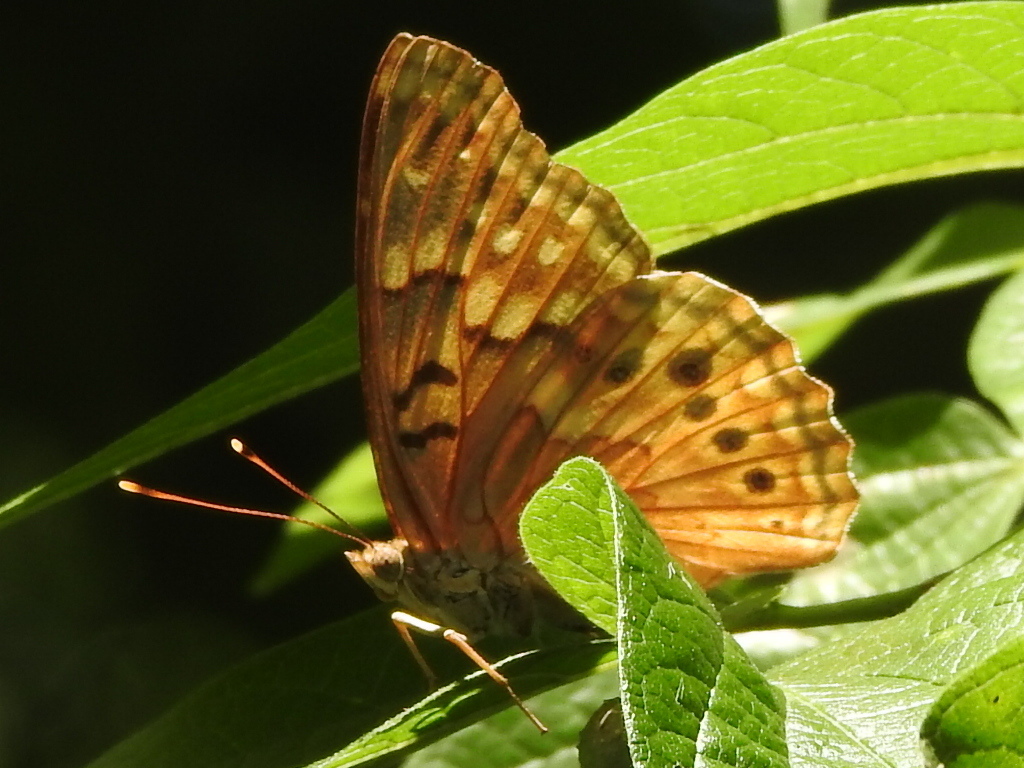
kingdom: Animalia
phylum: Arthropoda
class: Insecta
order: Lepidoptera
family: Nymphalidae
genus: Asterocampa
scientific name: Asterocampa clyton
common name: Tawny emperor
